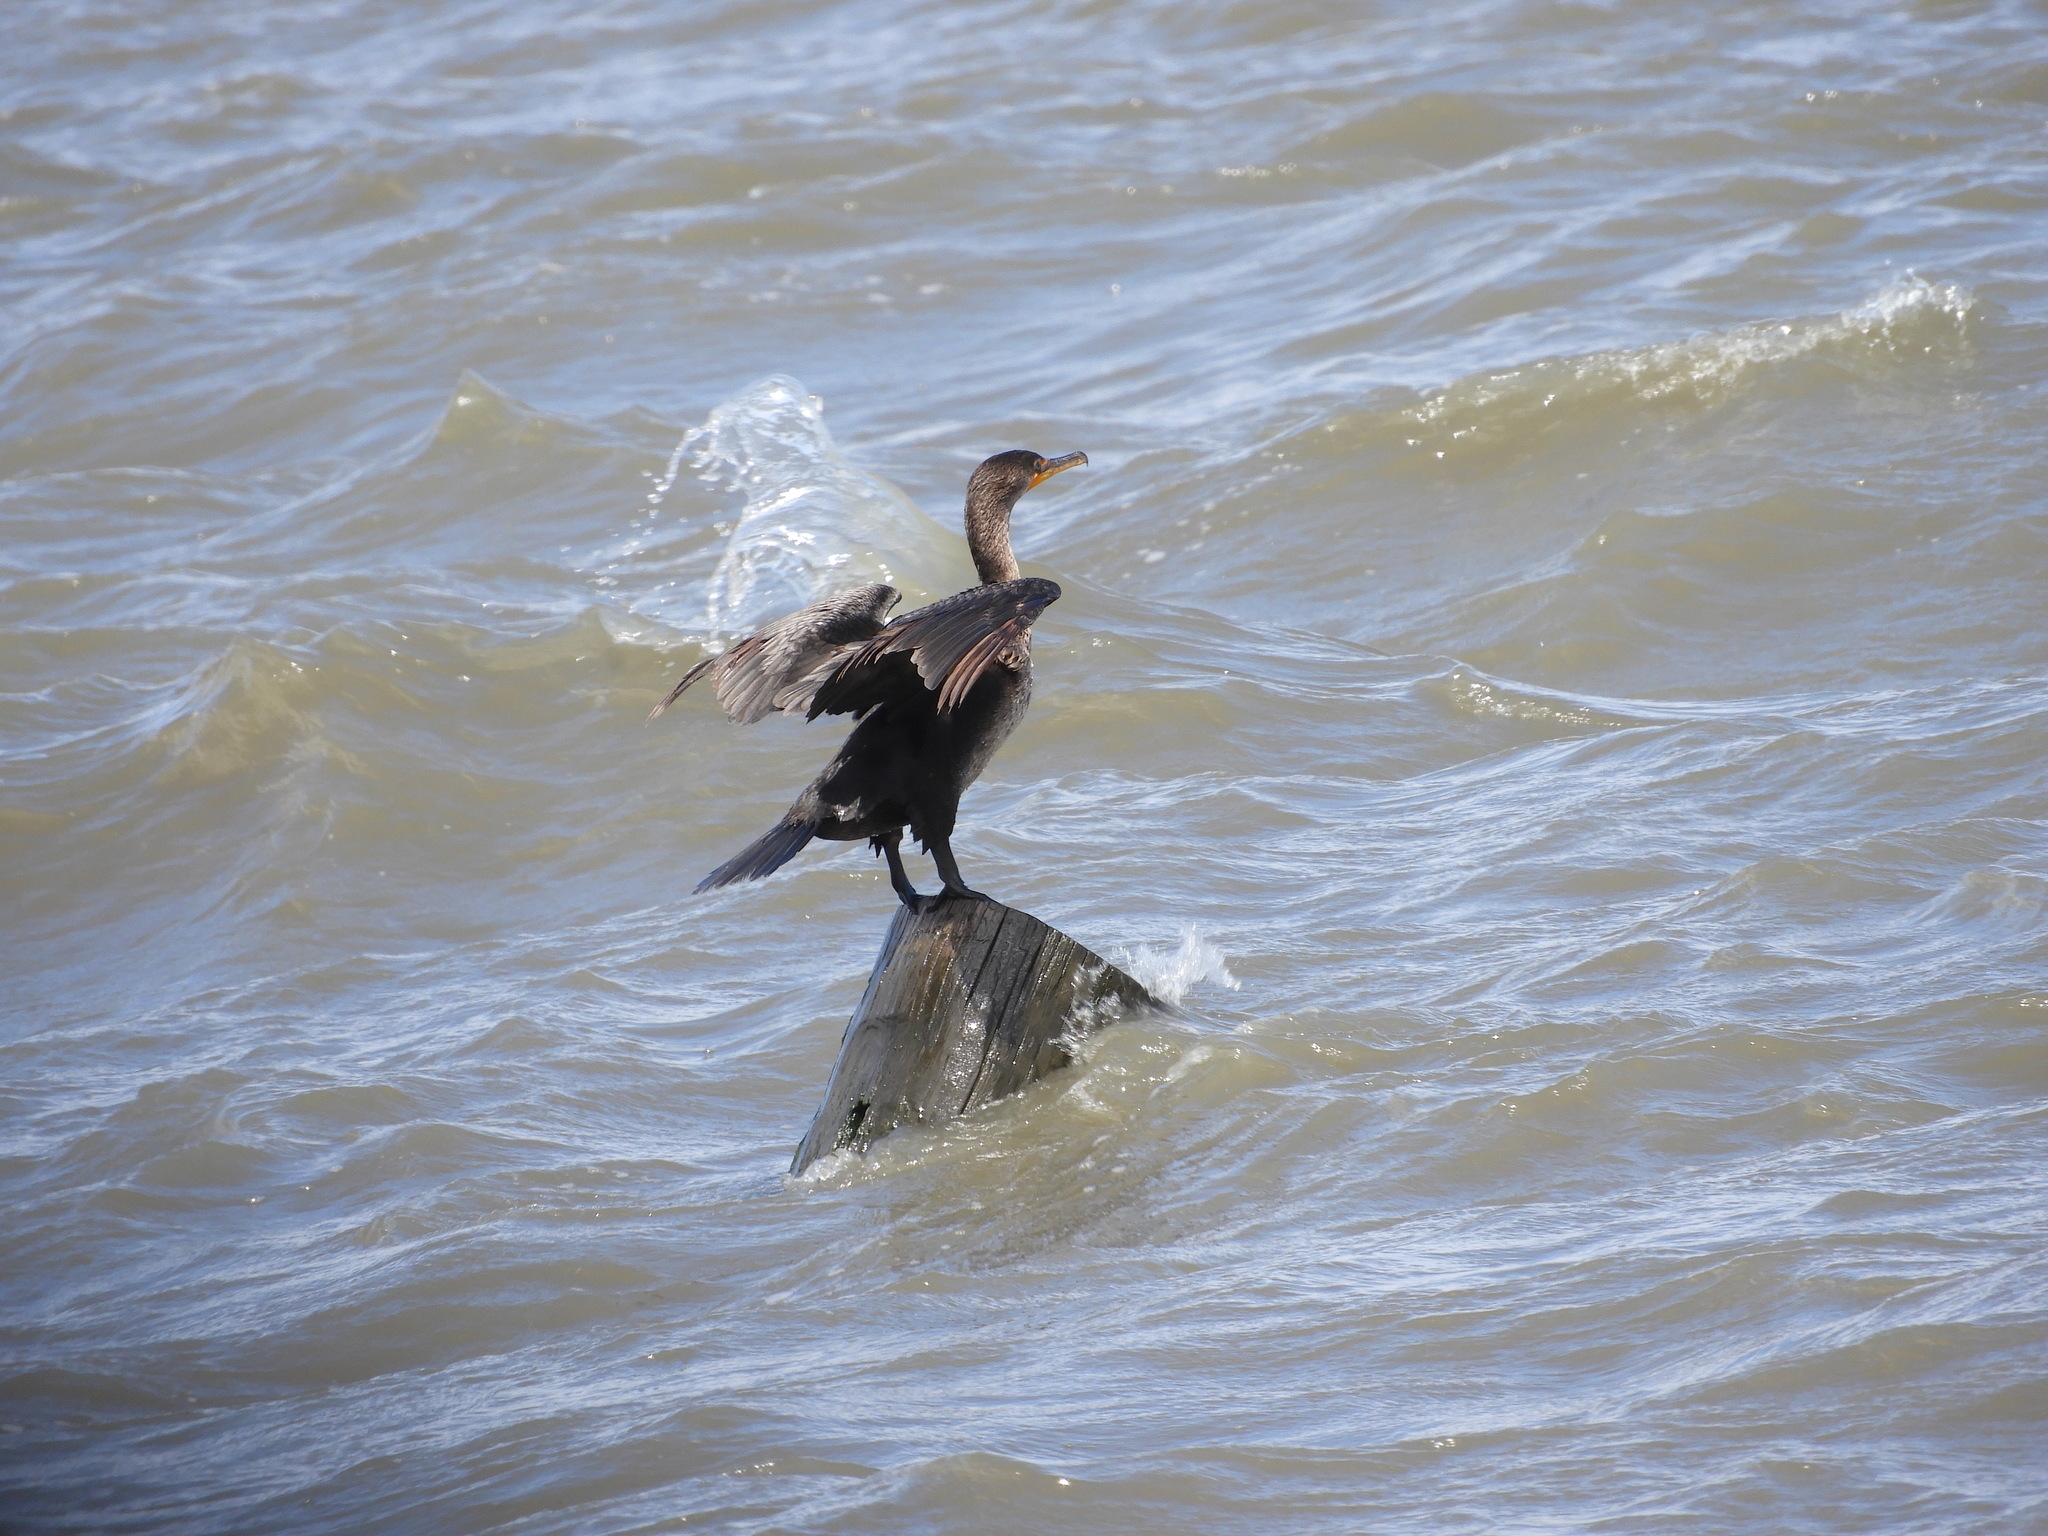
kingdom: Animalia
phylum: Chordata
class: Aves
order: Suliformes
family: Phalacrocoracidae
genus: Phalacrocorax
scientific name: Phalacrocorax auritus
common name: Double-crested cormorant
